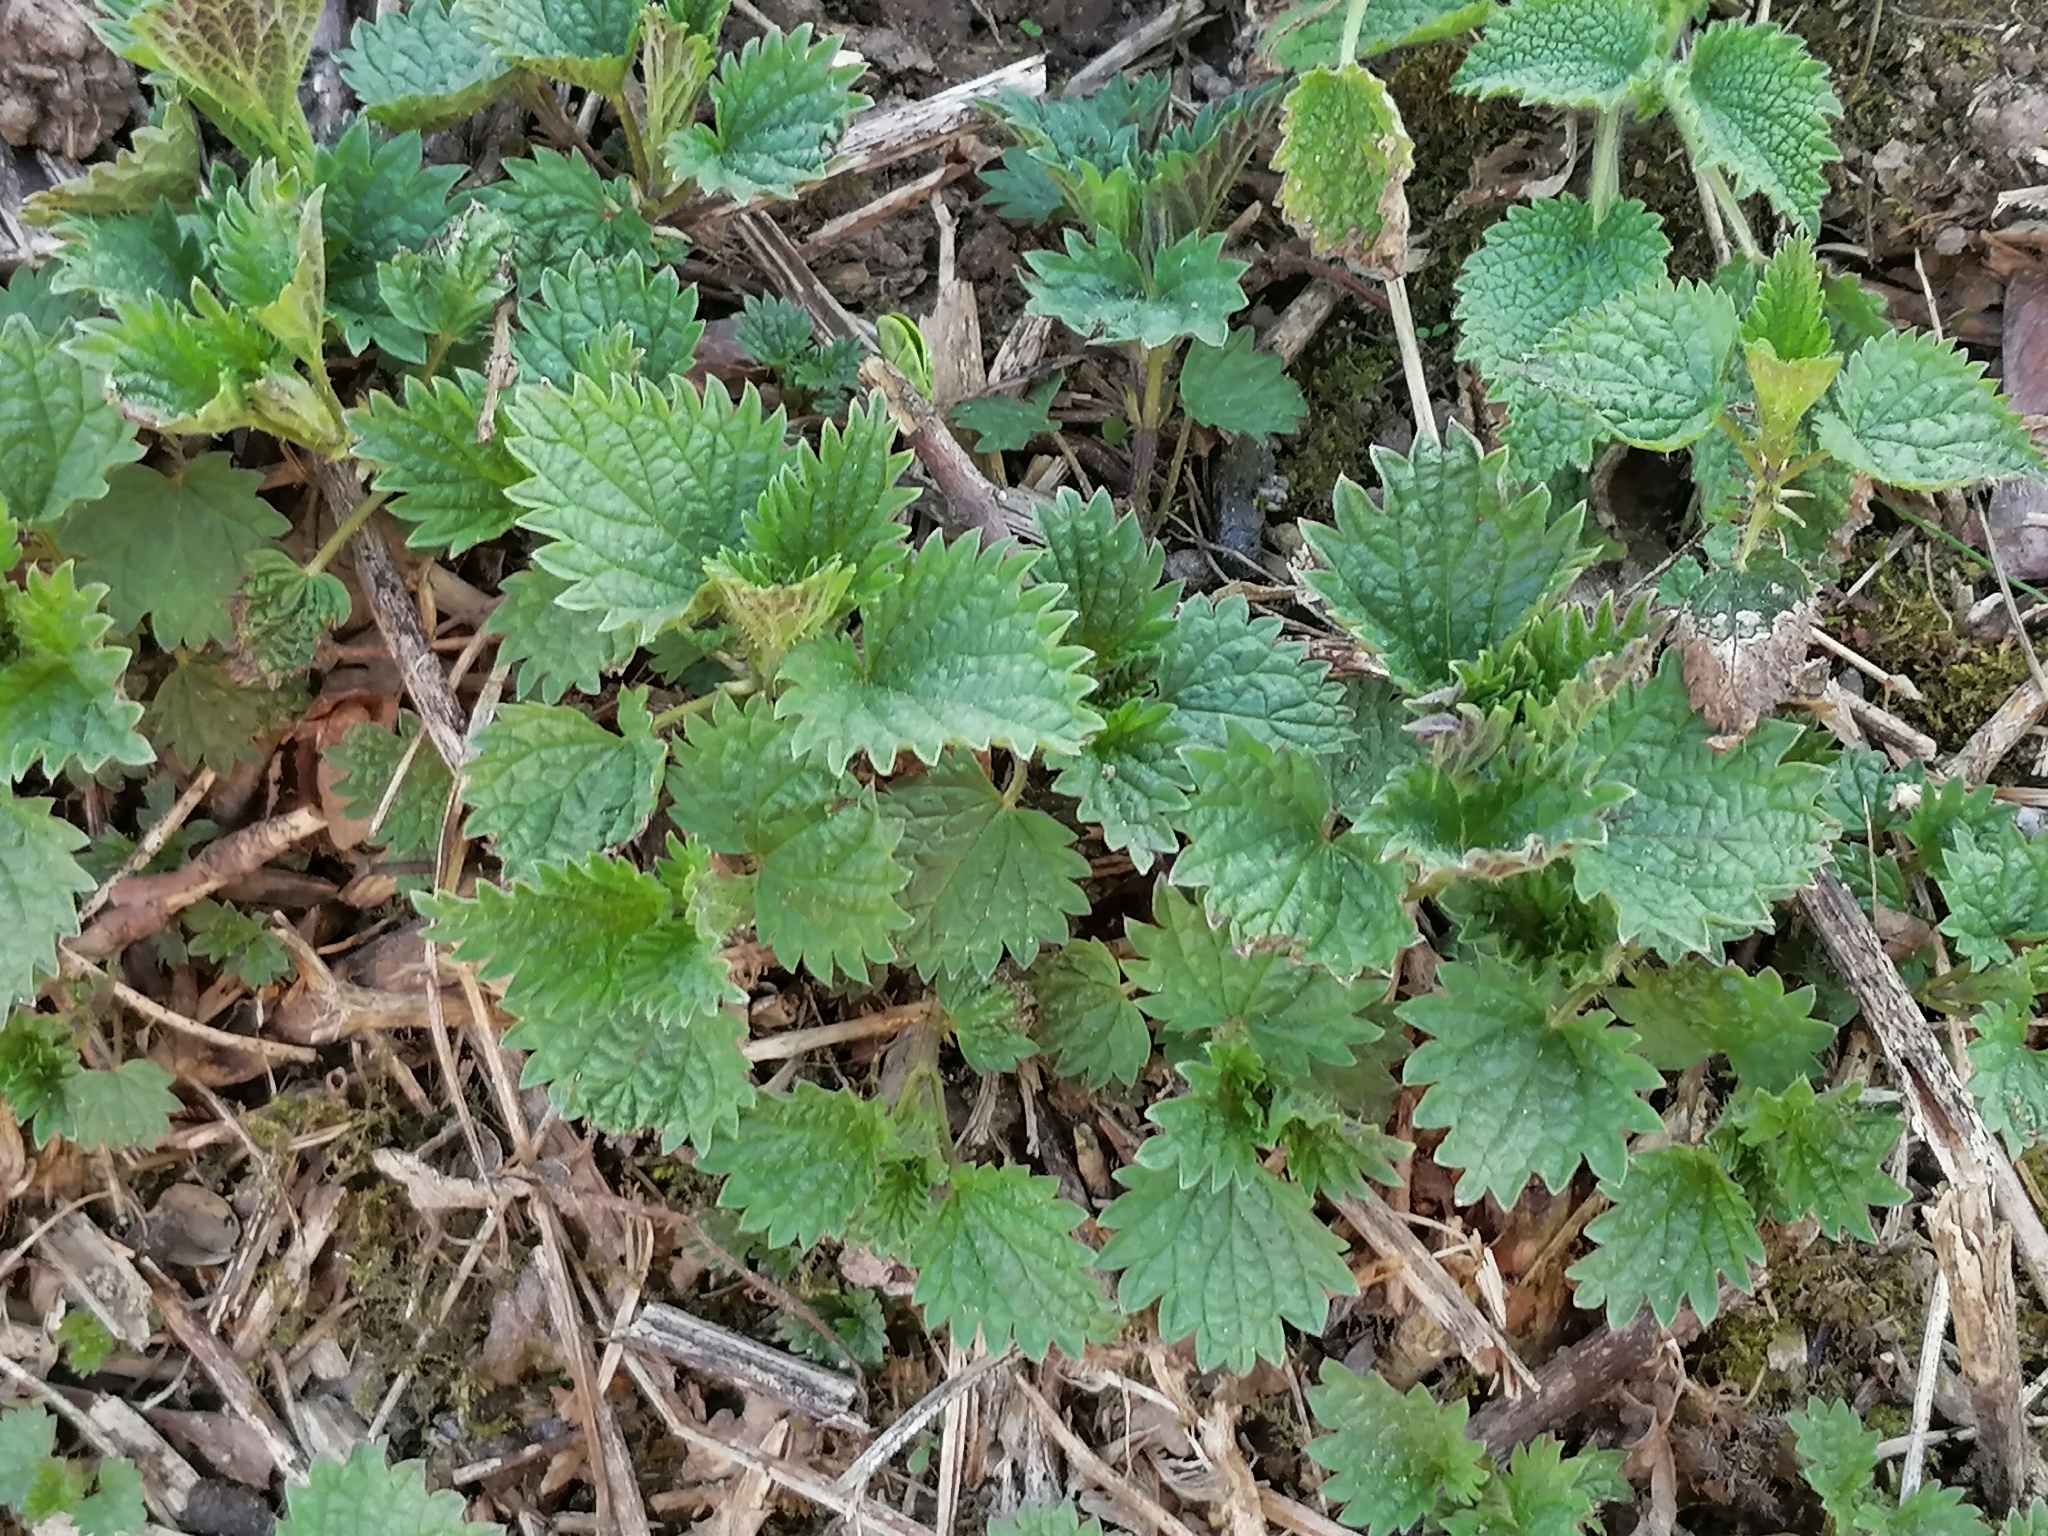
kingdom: Plantae
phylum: Tracheophyta
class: Magnoliopsida
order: Rosales
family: Urticaceae
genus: Urtica
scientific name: Urtica dioica
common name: Common nettle
